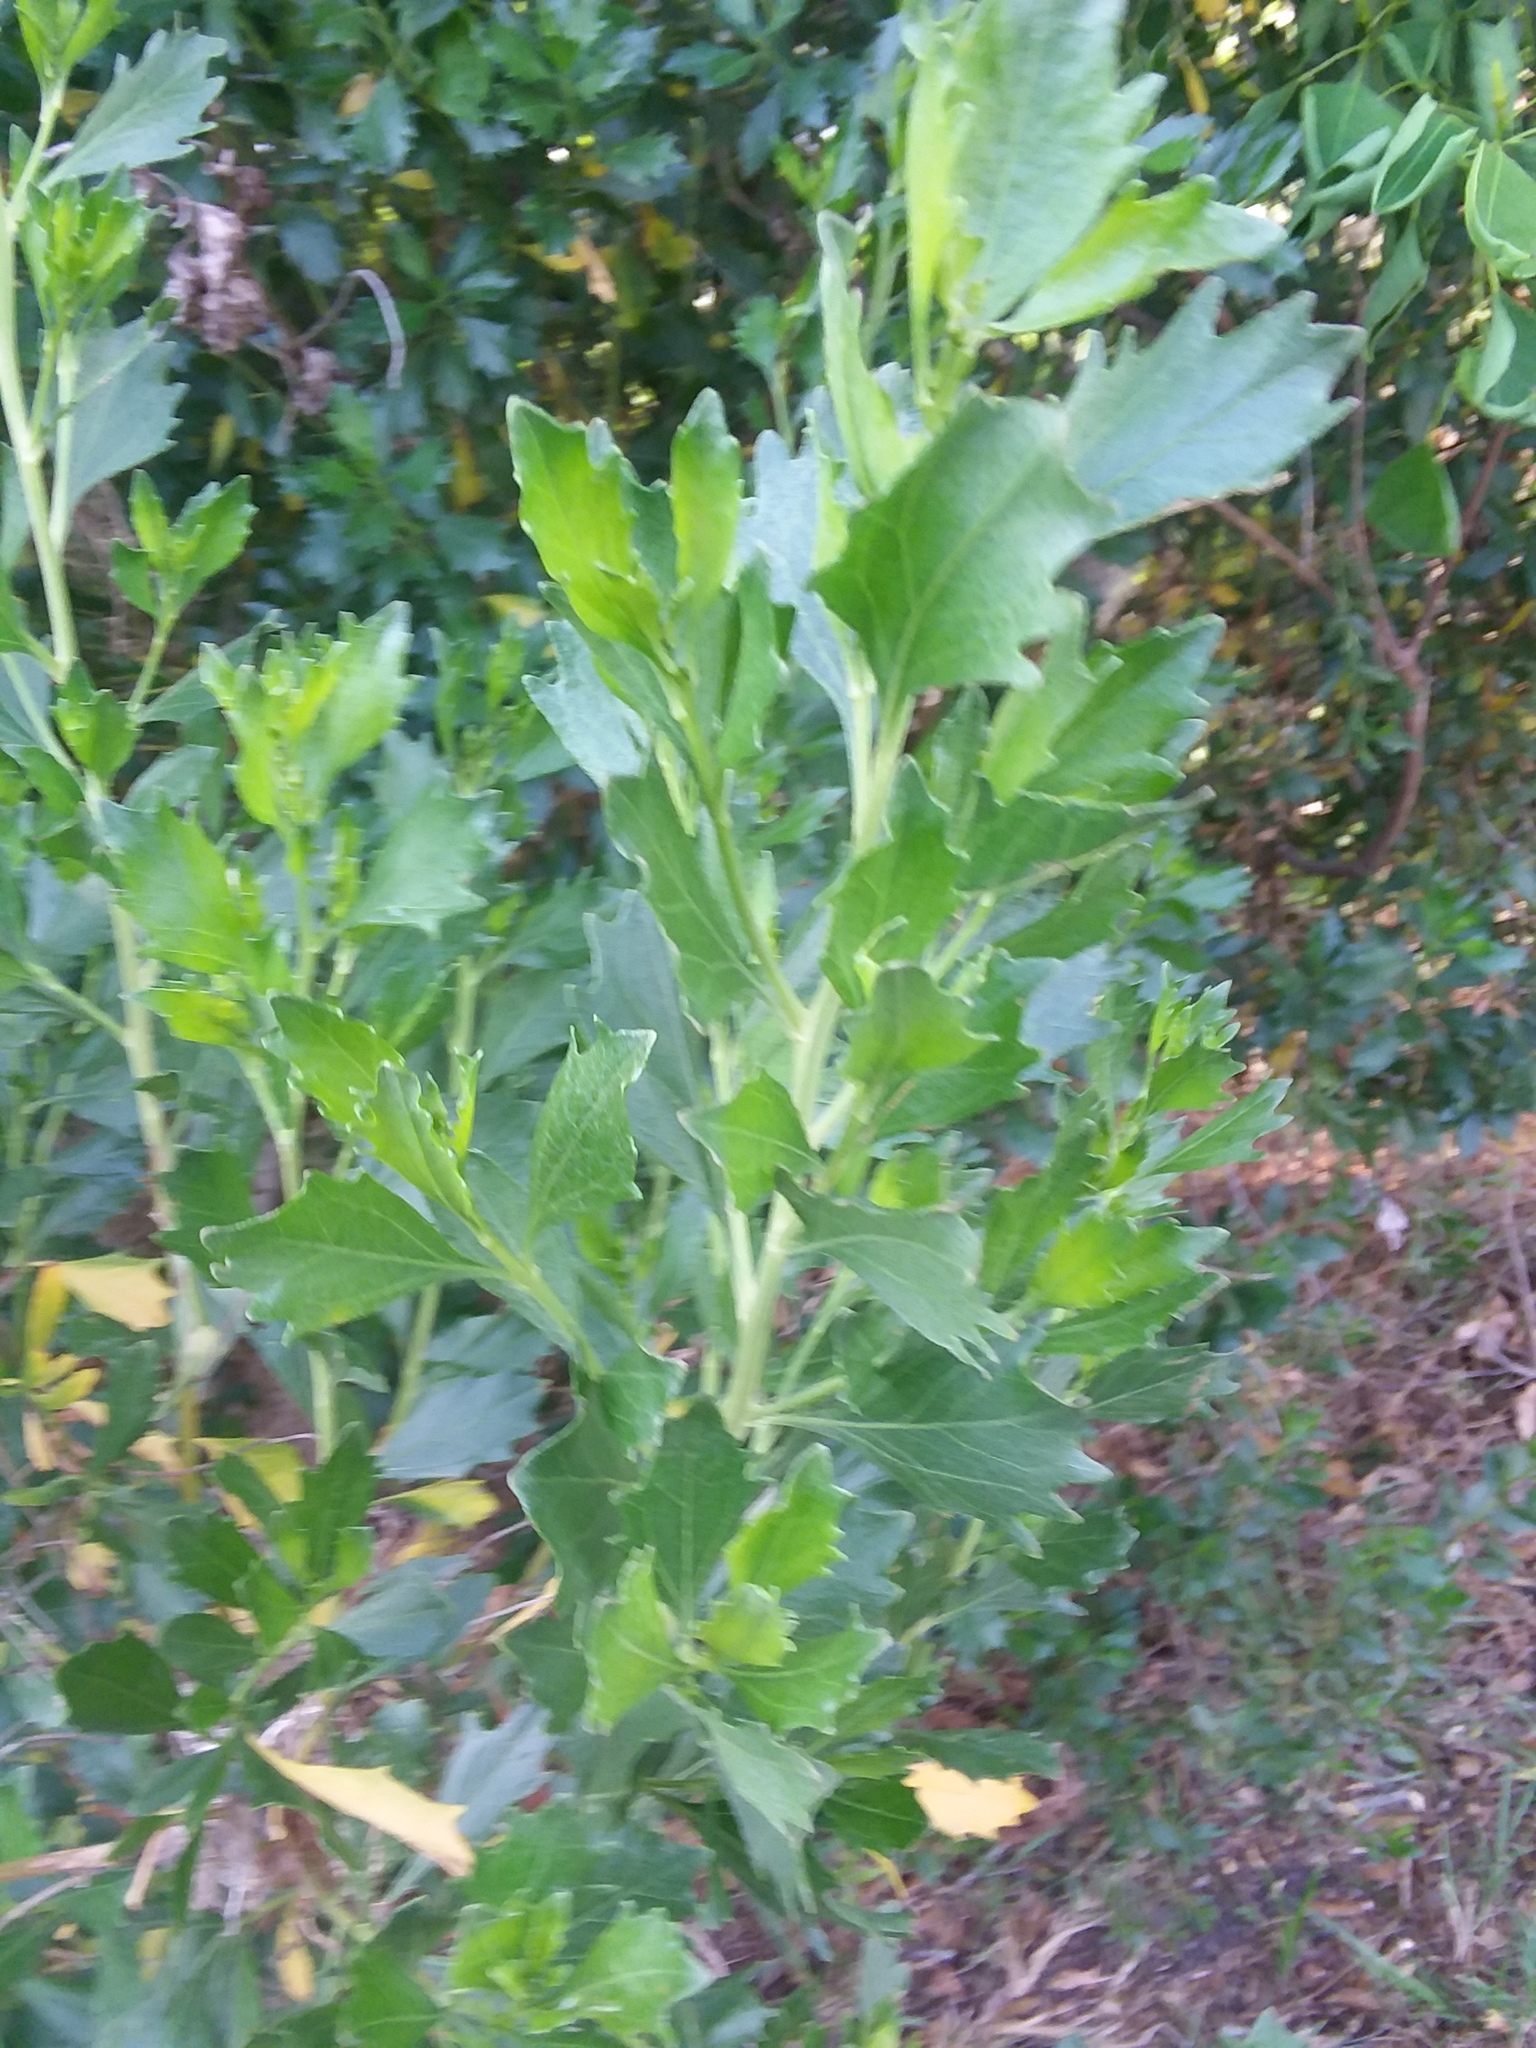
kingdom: Plantae
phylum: Tracheophyta
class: Magnoliopsida
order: Asterales
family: Asteraceae
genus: Baccharis
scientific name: Baccharis halimifolia
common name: Eastern baccharis
